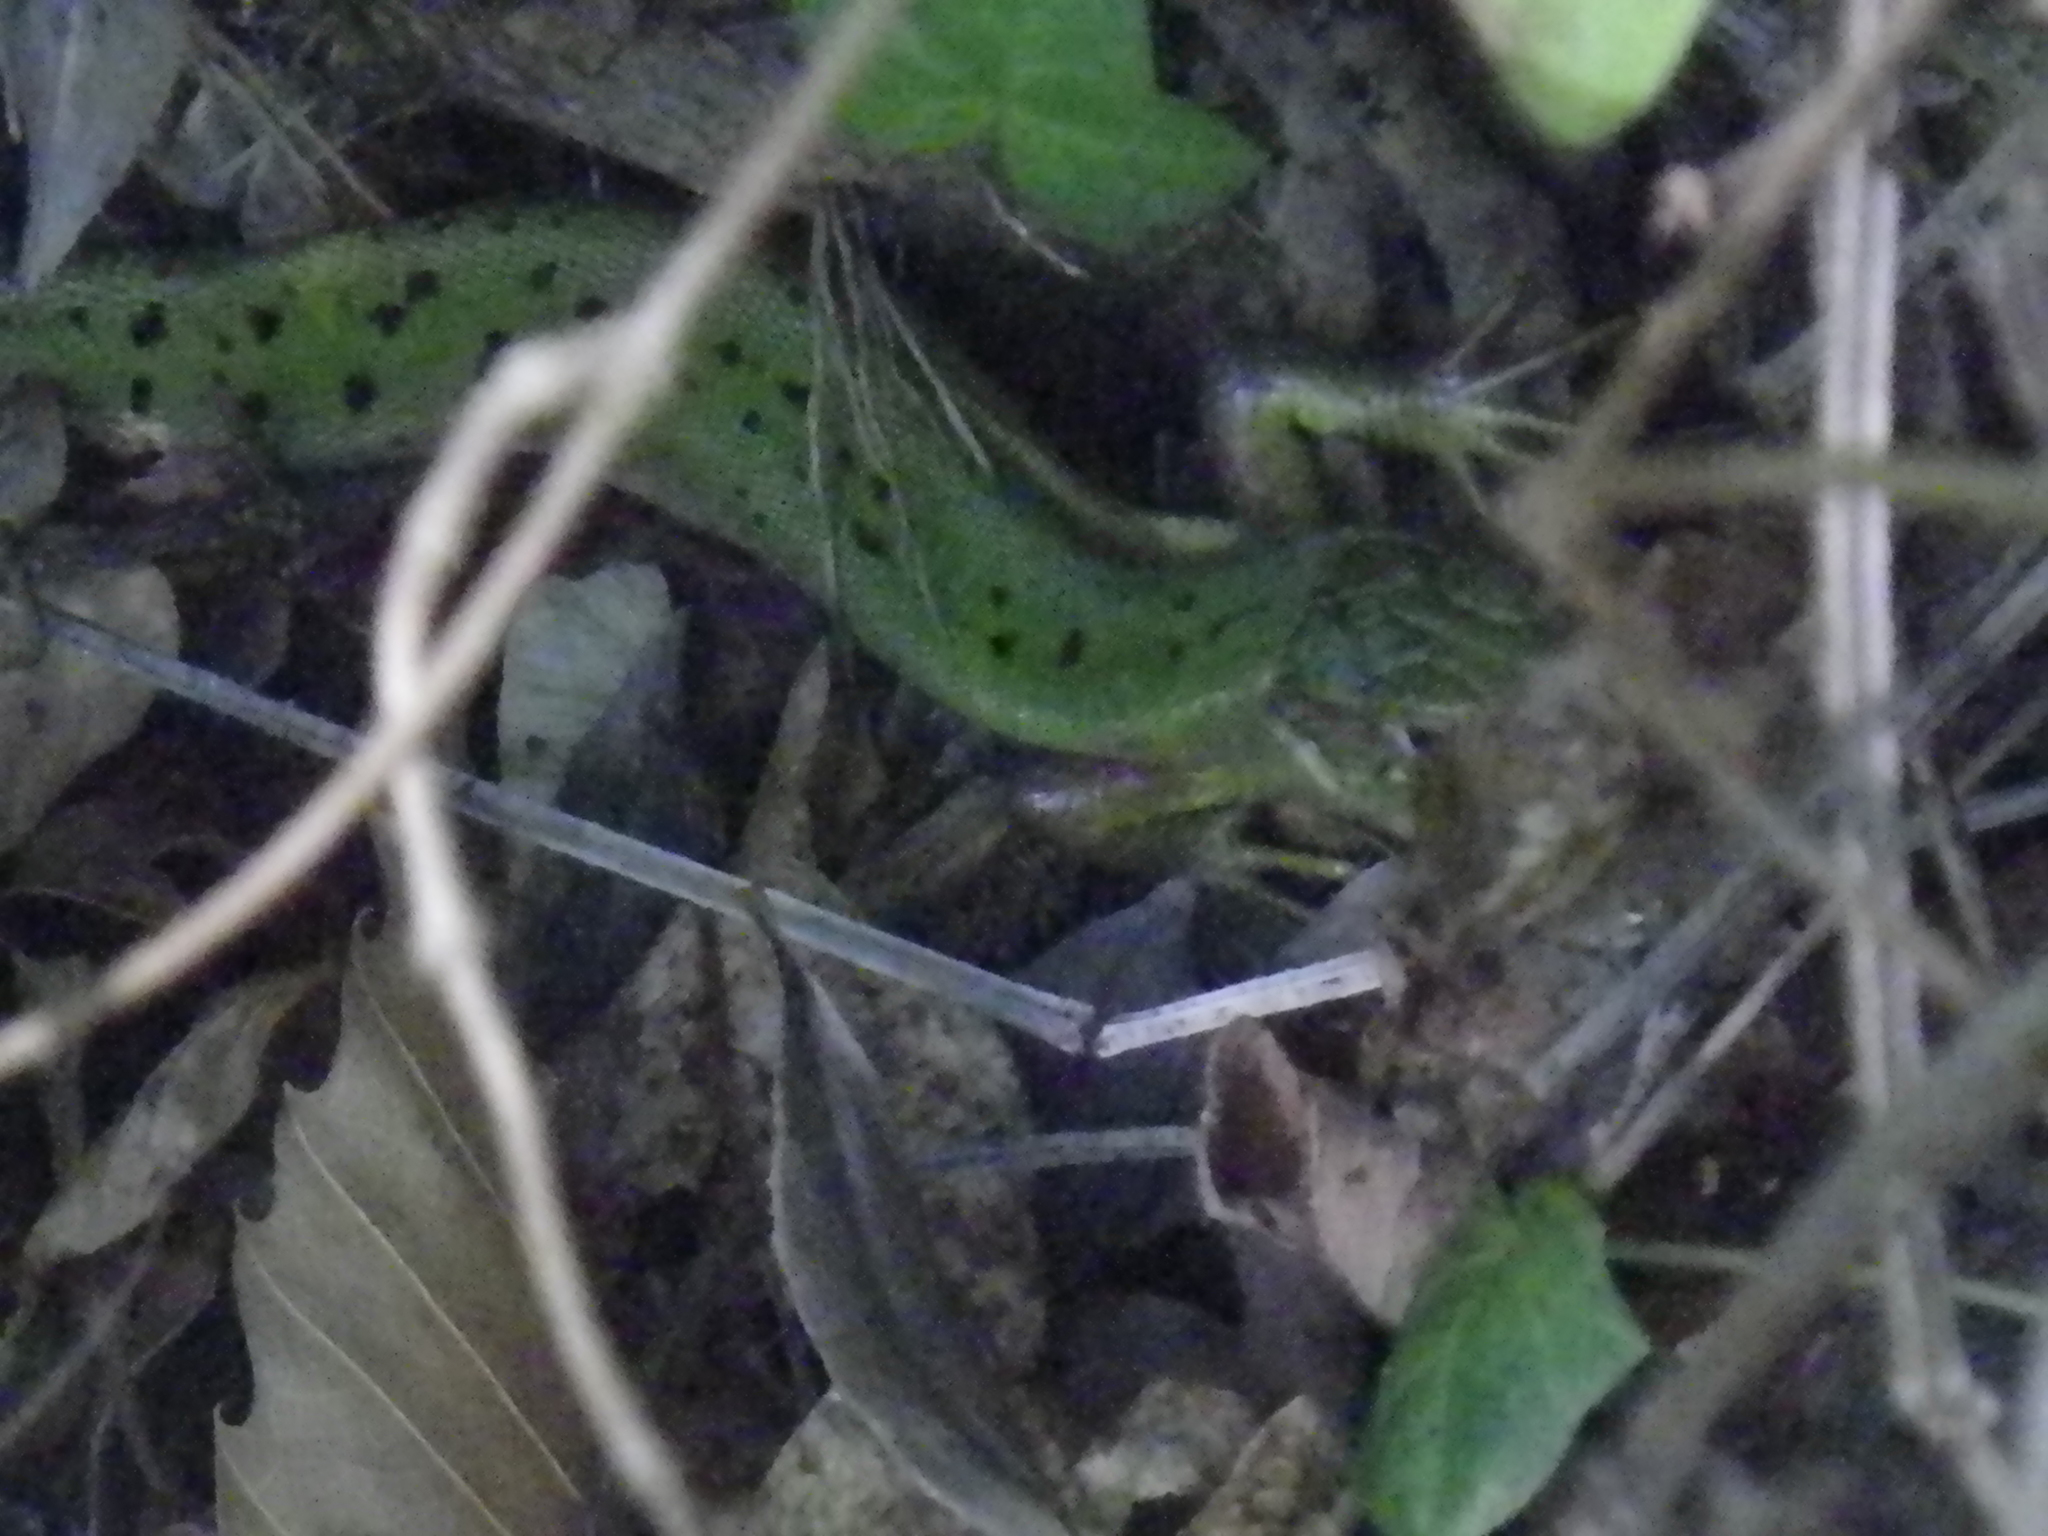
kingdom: Animalia
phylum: Chordata
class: Squamata
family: Lacertidae
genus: Lacerta
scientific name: Lacerta bilineata
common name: Western green lizard
